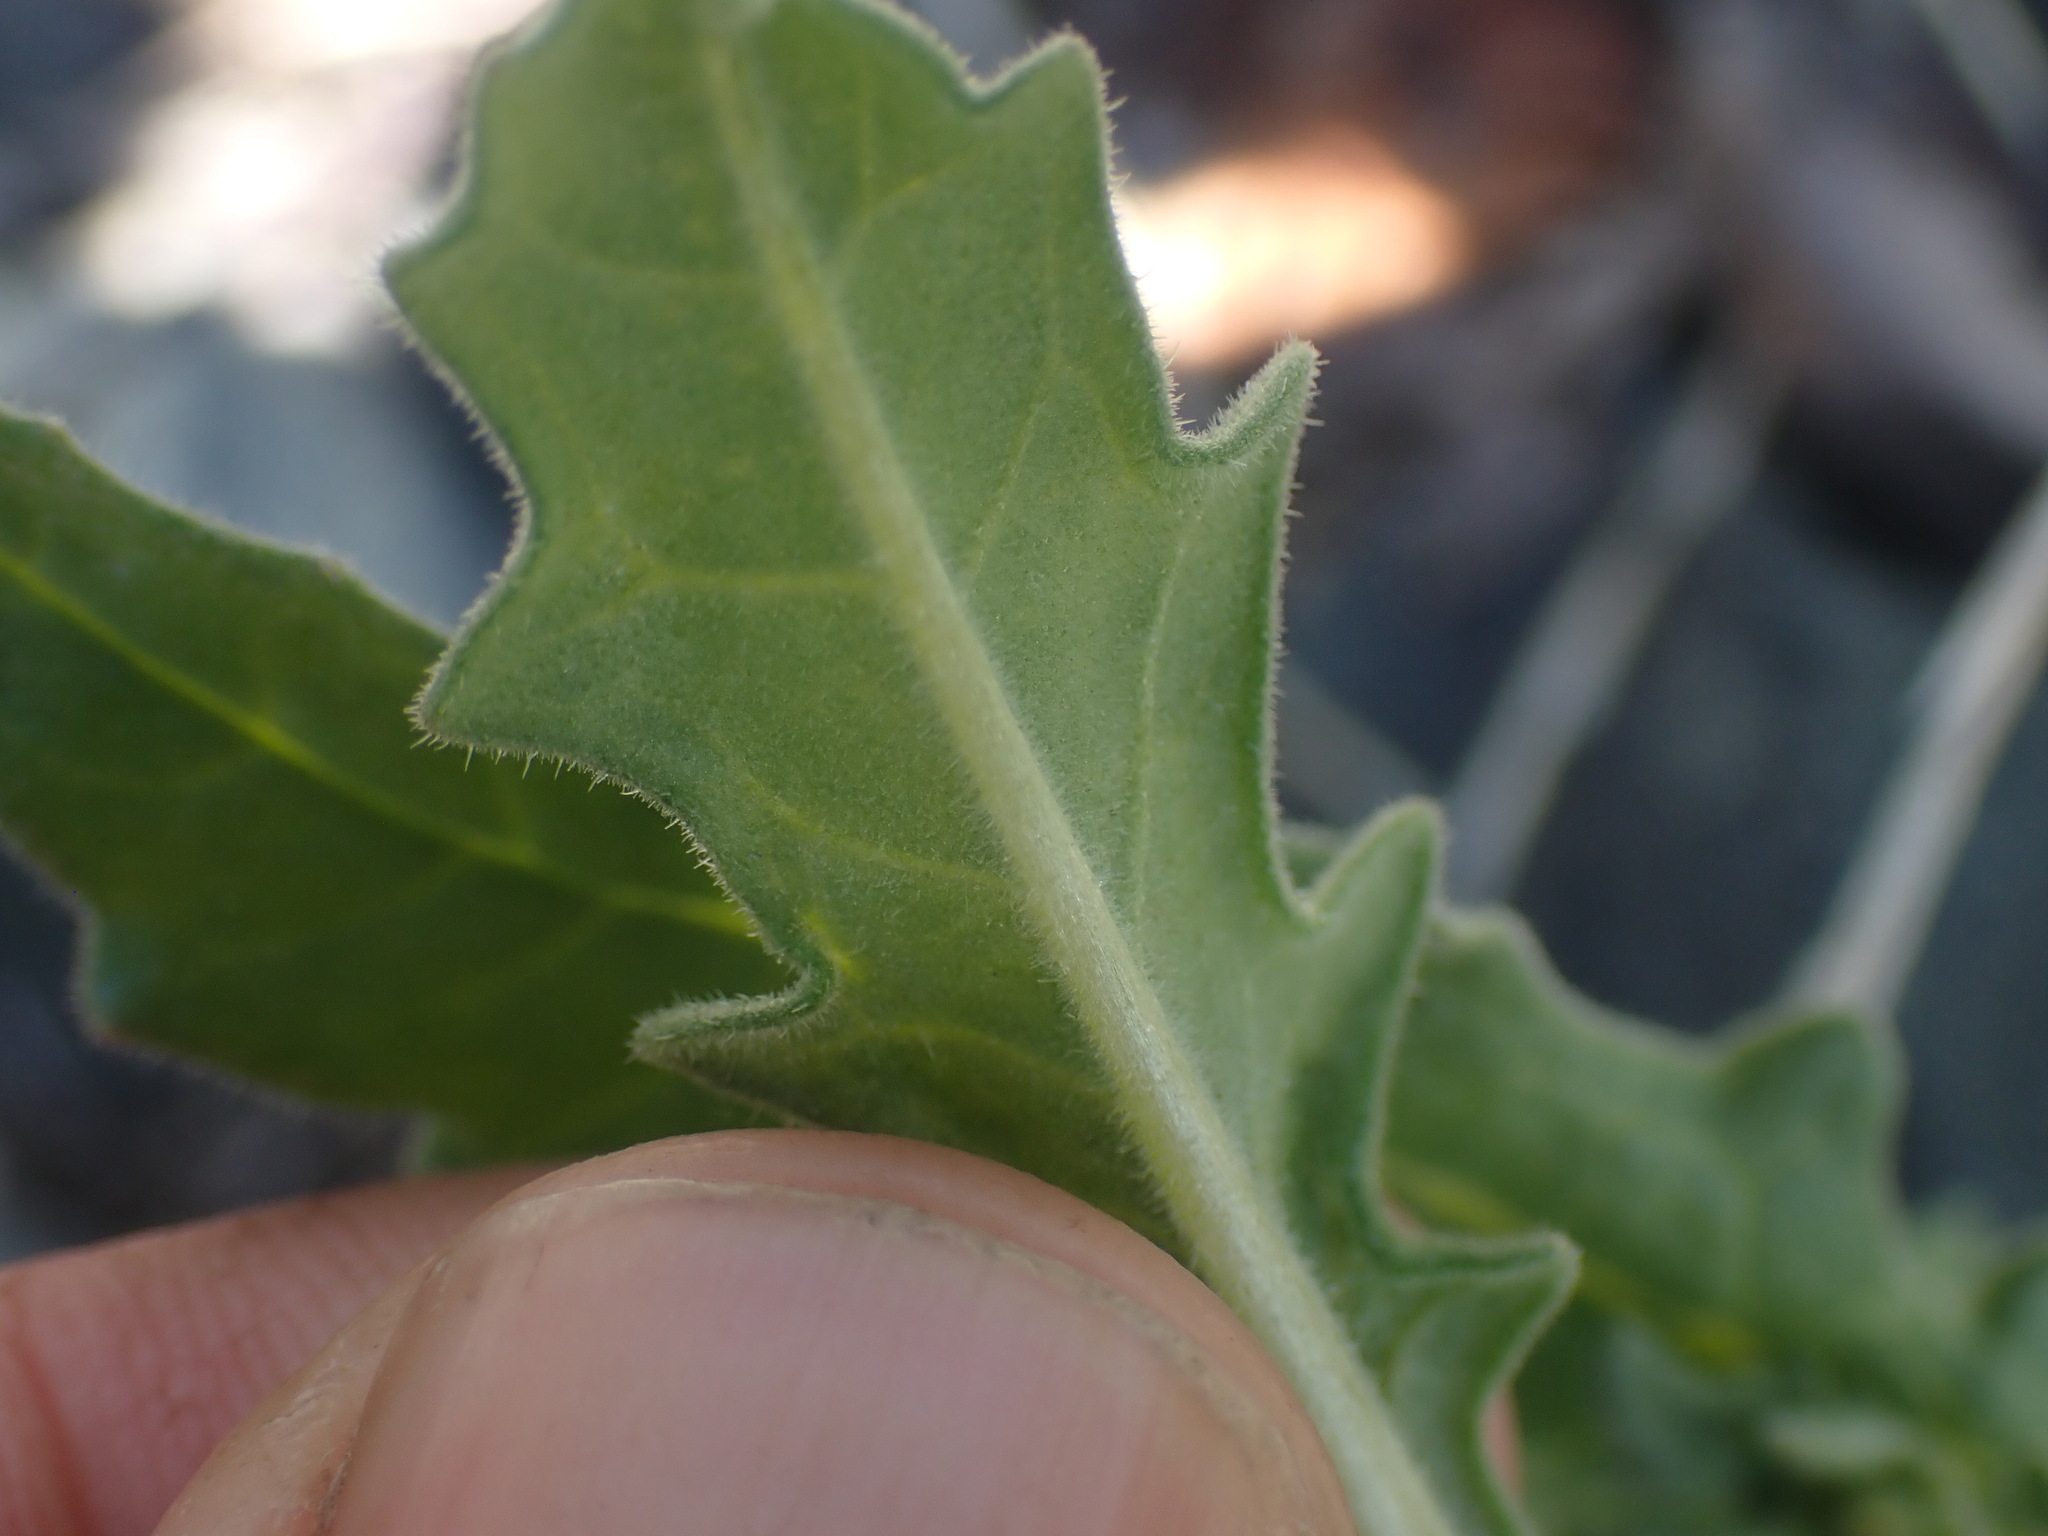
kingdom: Plantae
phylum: Tracheophyta
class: Magnoliopsida
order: Cornales
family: Loasaceae
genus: Mentzelia
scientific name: Mentzelia albicaulis
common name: White-stem blazingstar
